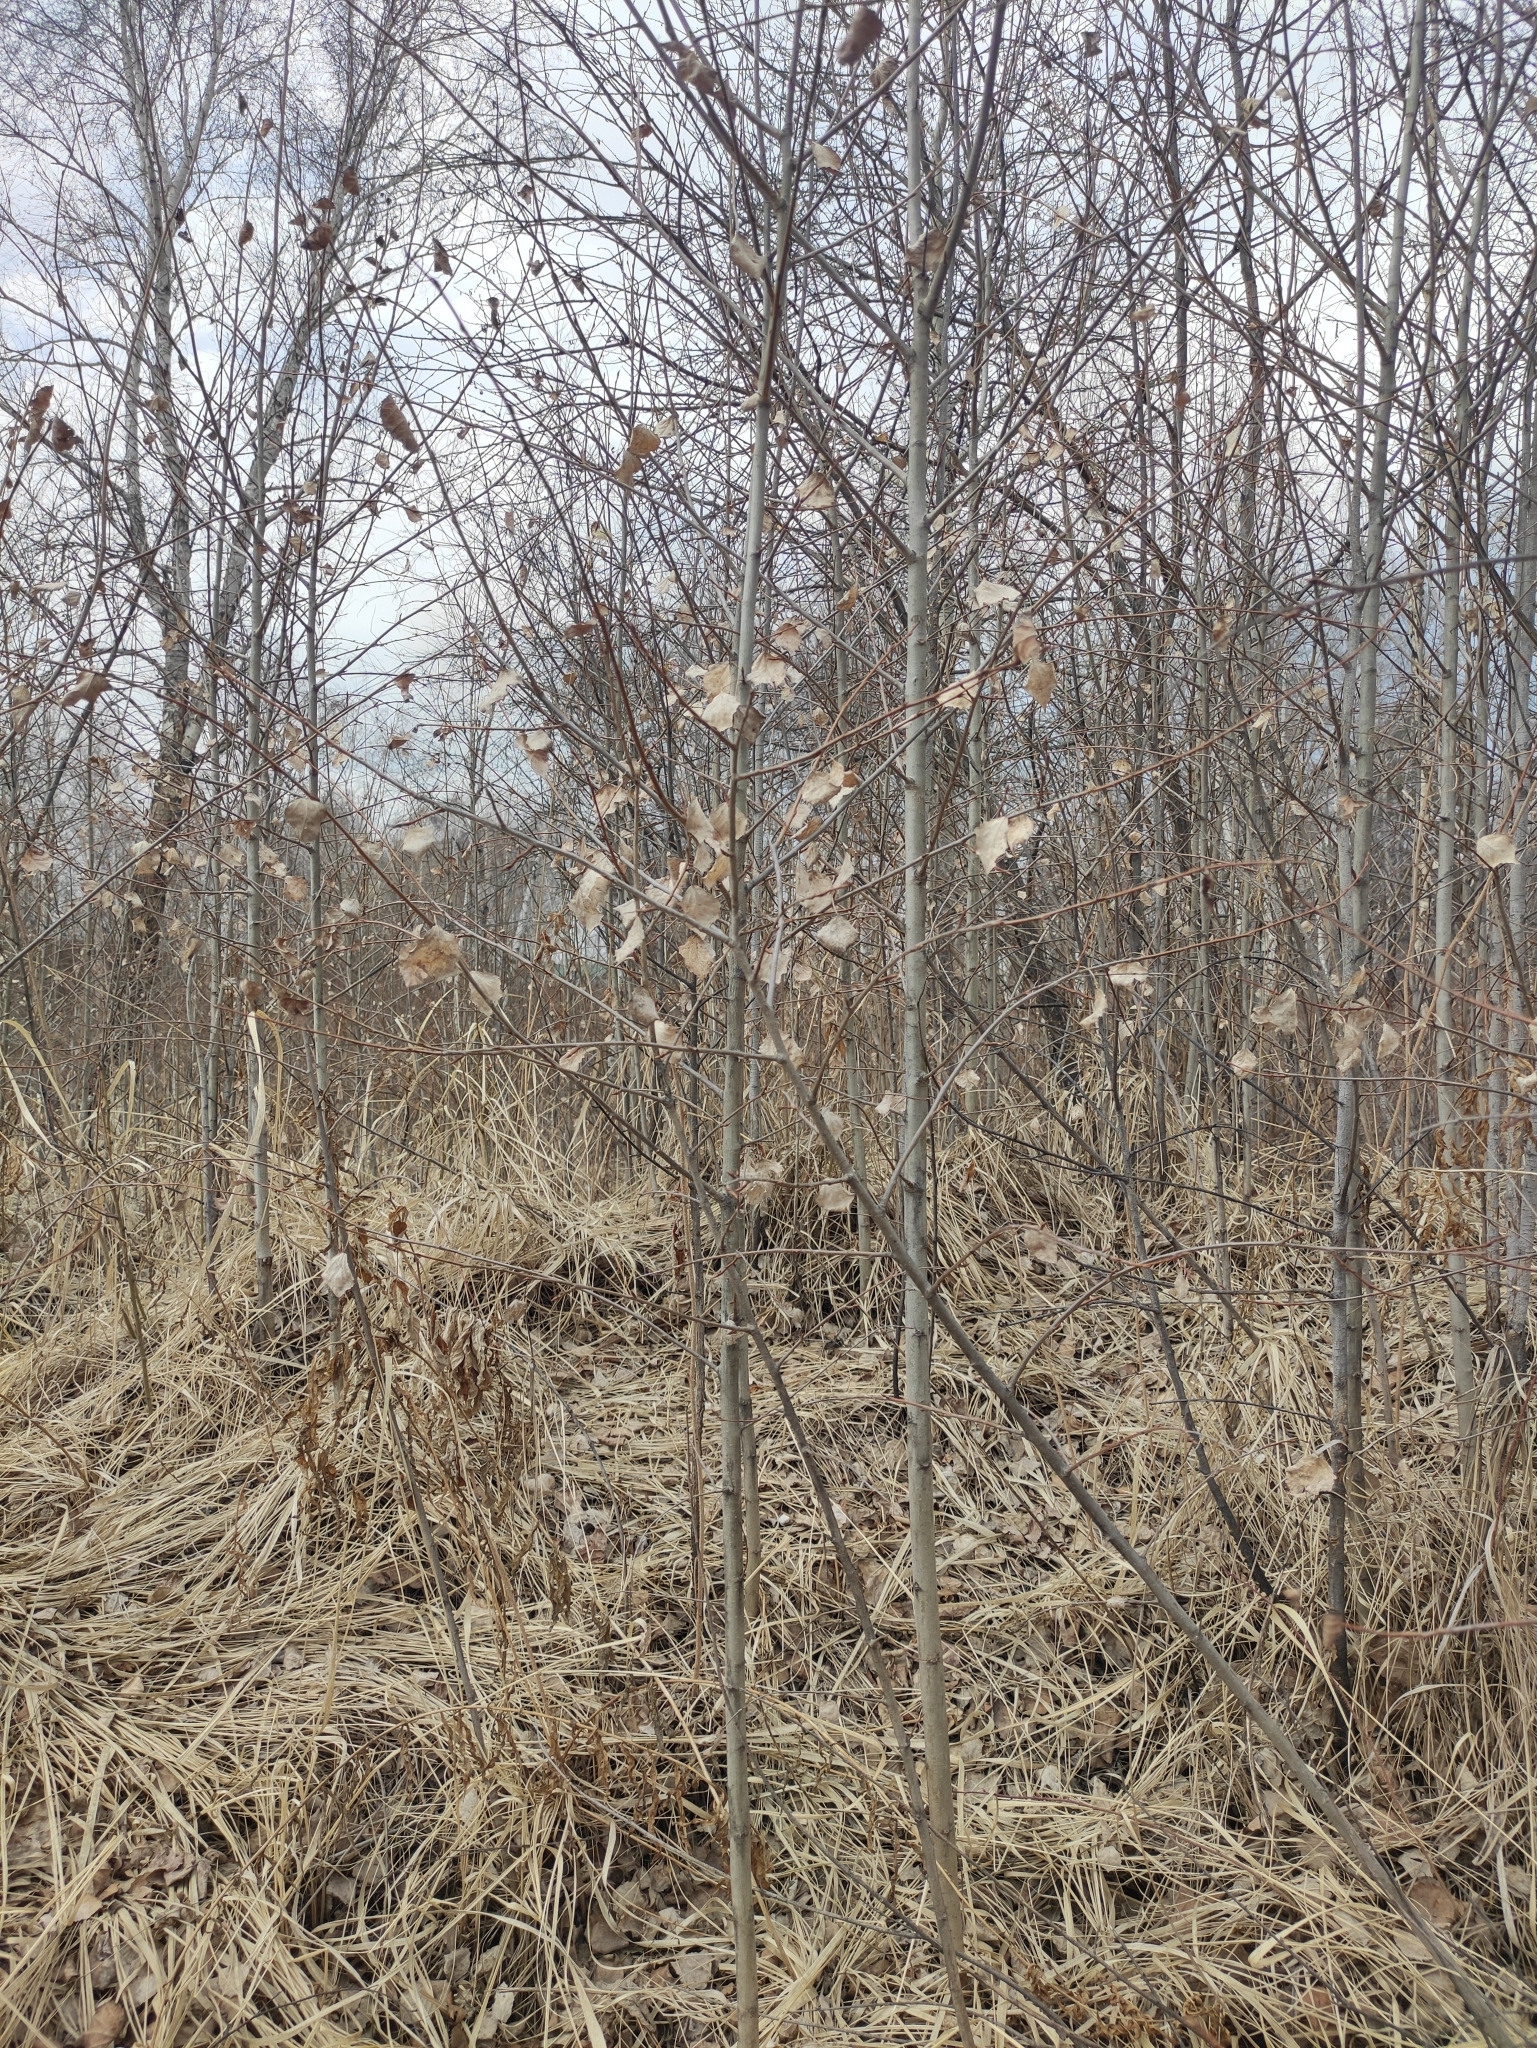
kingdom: Plantae
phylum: Tracheophyta
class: Magnoliopsida
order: Malpighiales
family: Salicaceae
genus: Populus
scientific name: Populus tremula
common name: European aspen
